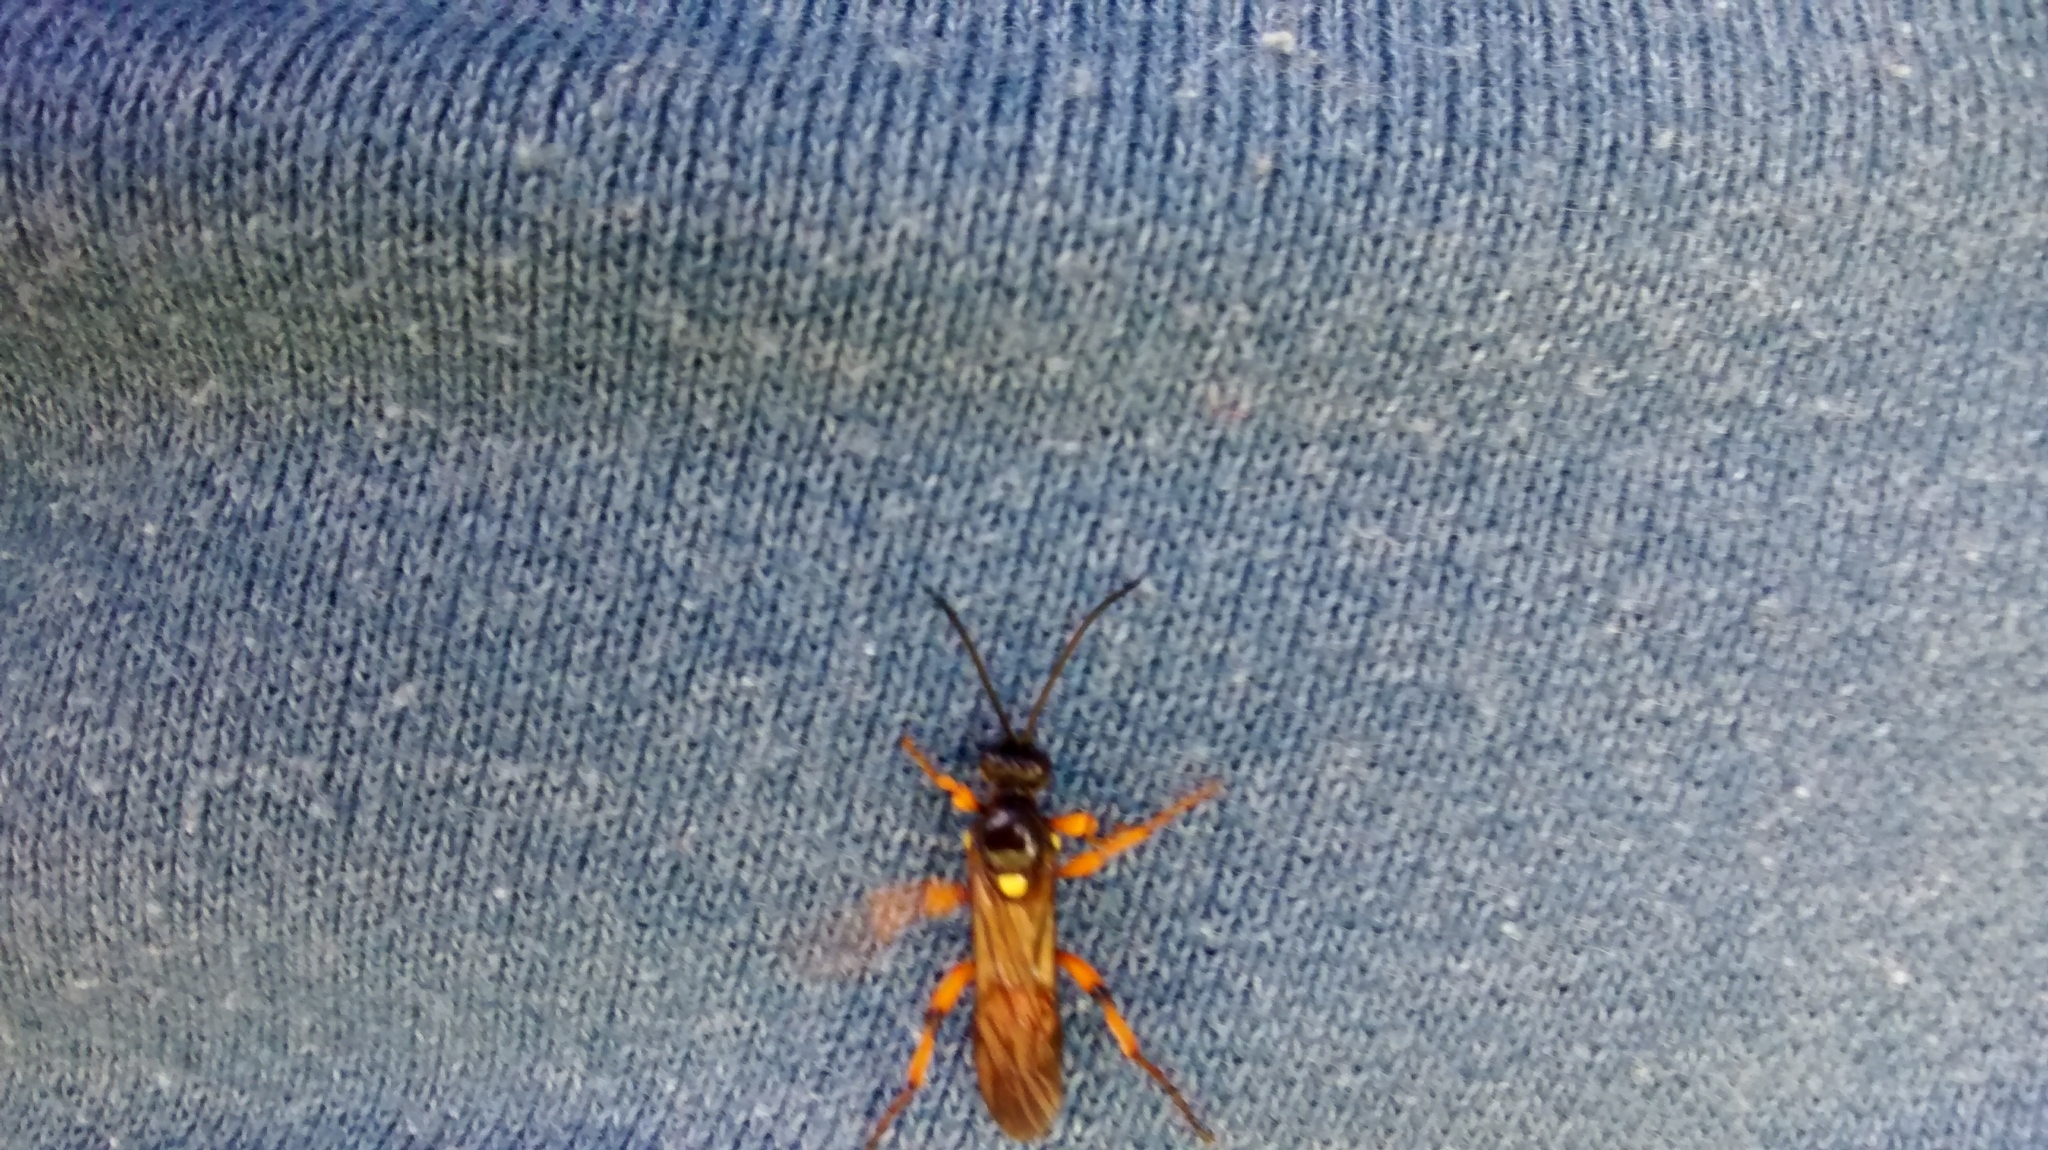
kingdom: Animalia
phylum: Arthropoda
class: Insecta
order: Hymenoptera
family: Ichneumonidae
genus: Ichneumon
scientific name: Ichneumon lotatorius
